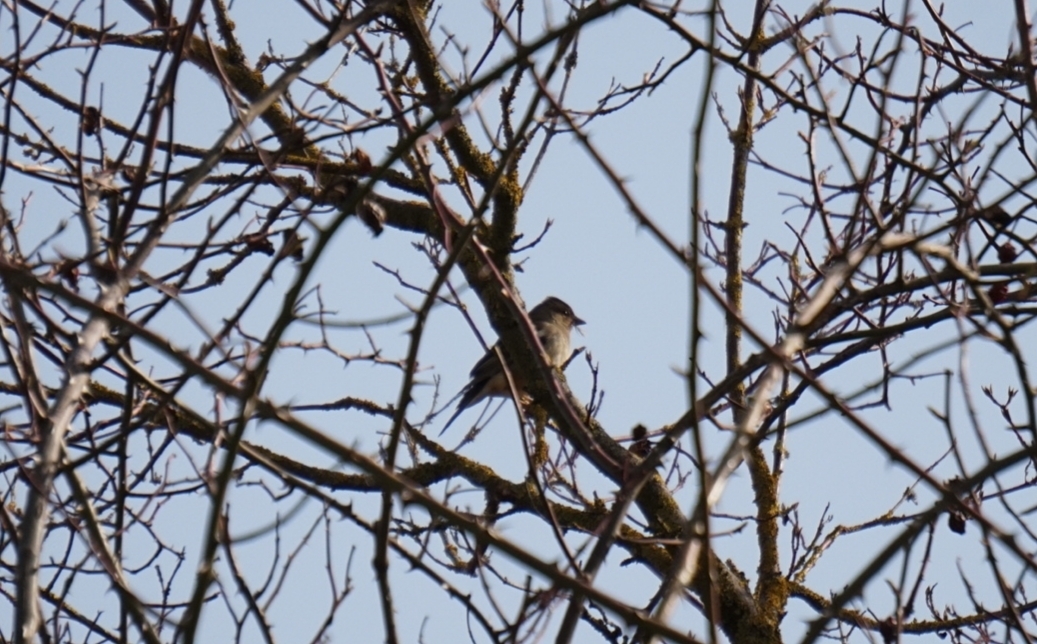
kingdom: Animalia
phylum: Chordata
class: Aves
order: Passeriformes
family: Fringillidae
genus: Fringilla
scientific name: Fringilla coelebs
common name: Common chaffinch
